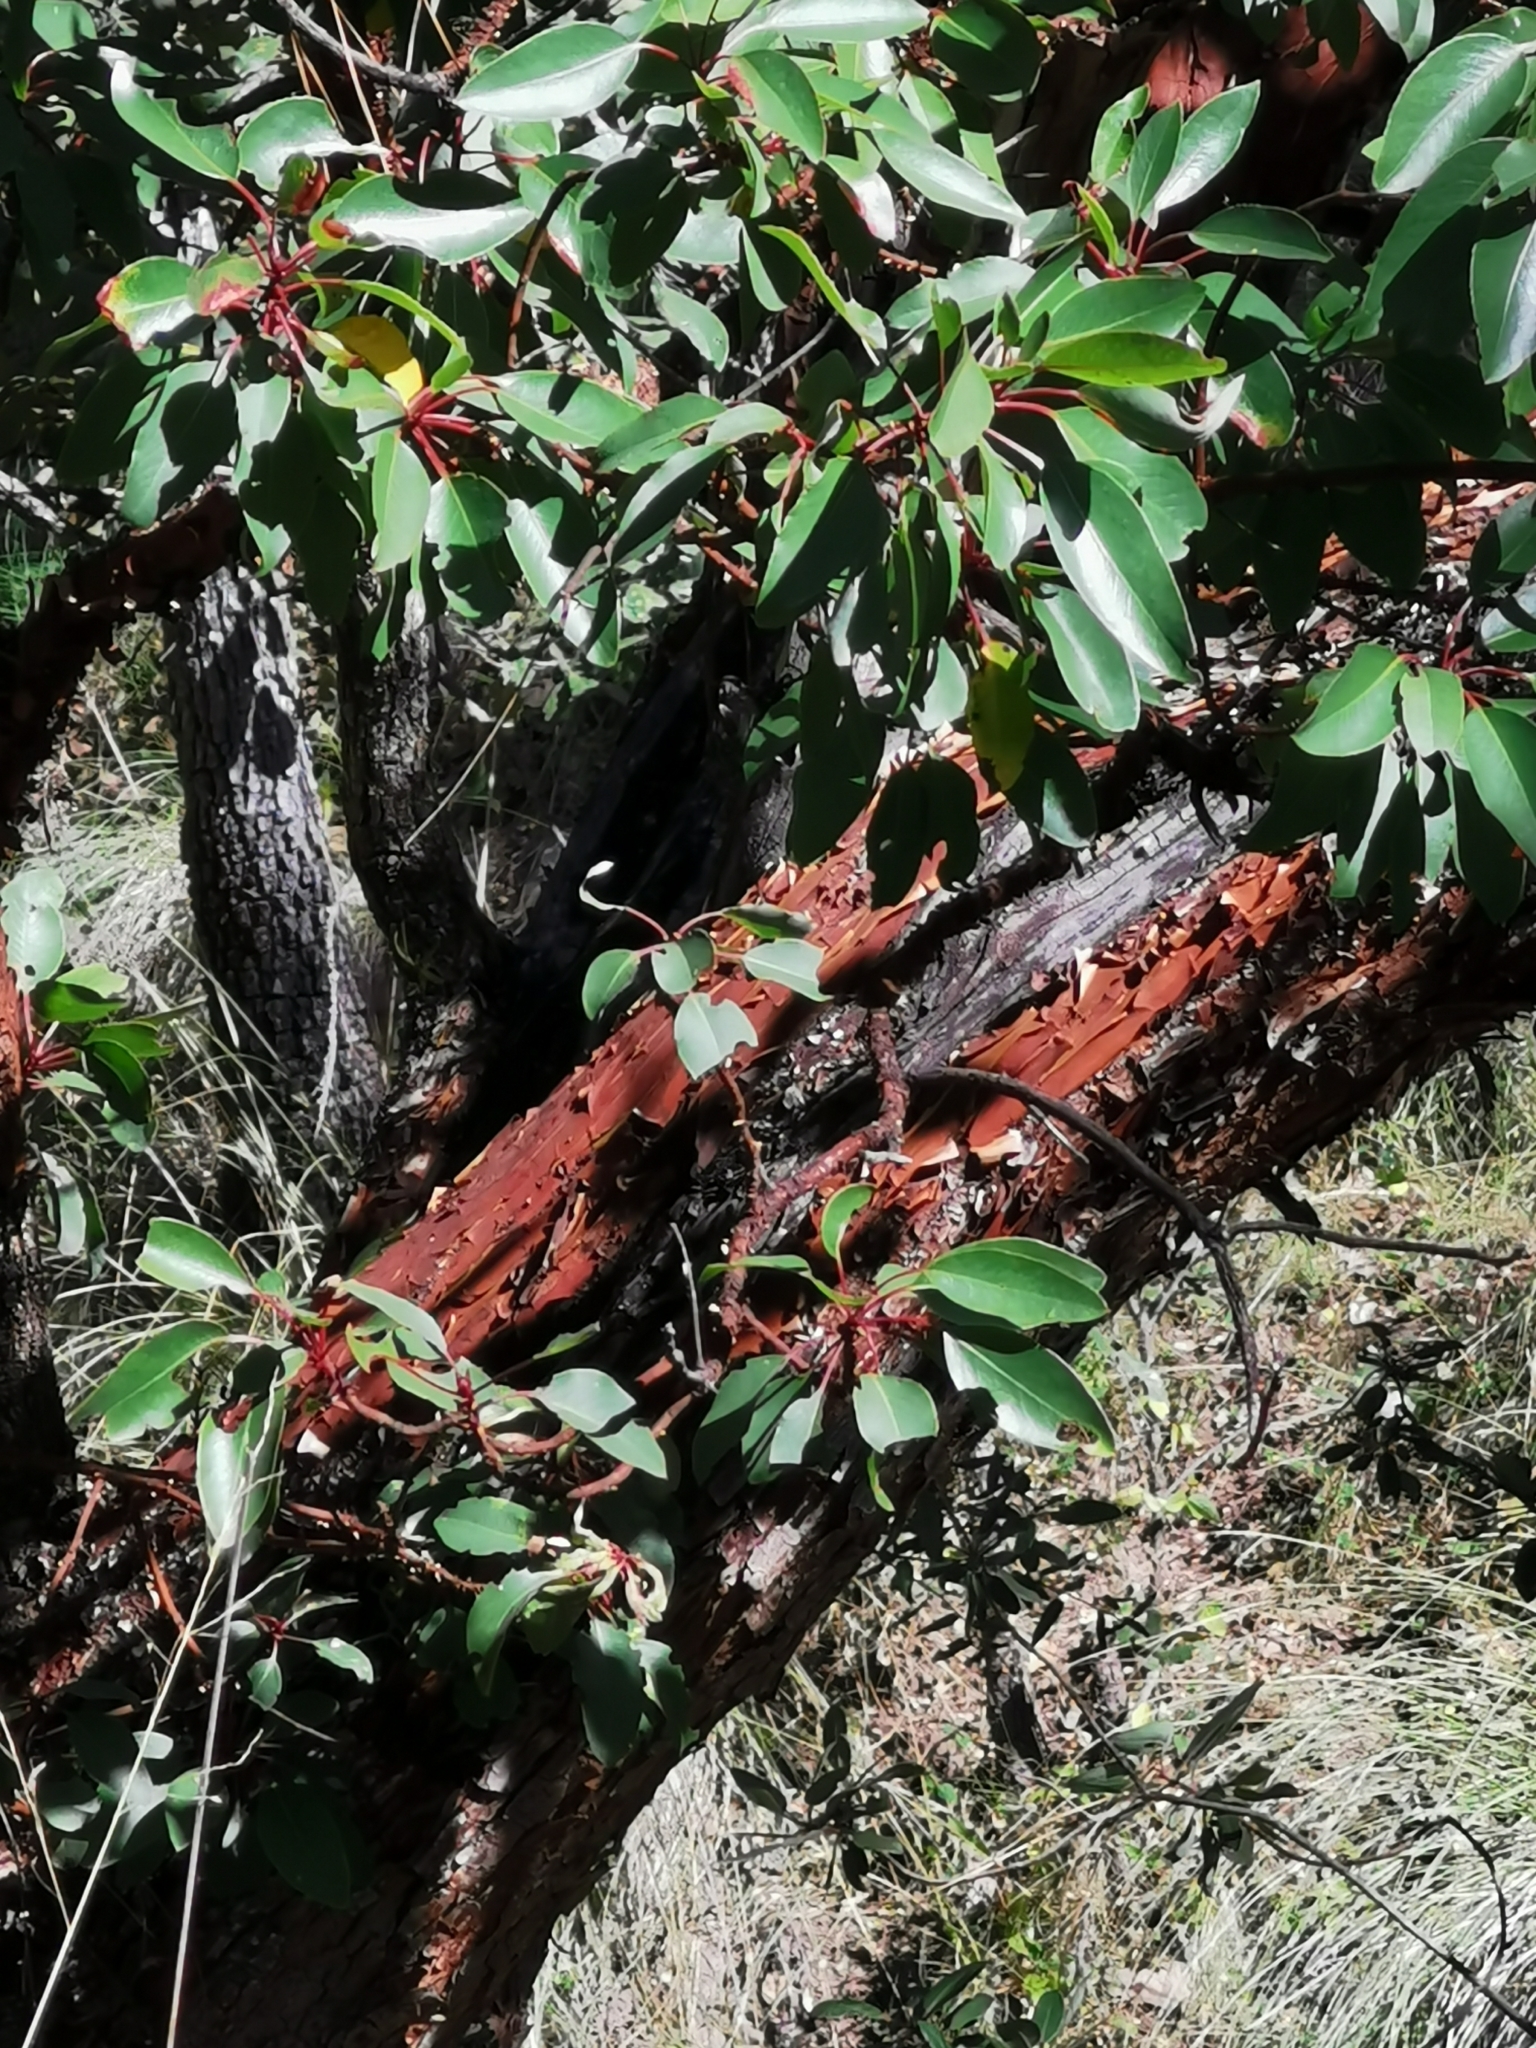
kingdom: Plantae
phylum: Tracheophyta
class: Magnoliopsida
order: Ericales
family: Ericaceae
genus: Arbutus
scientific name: Arbutus arizonica
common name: Arizona madrone
